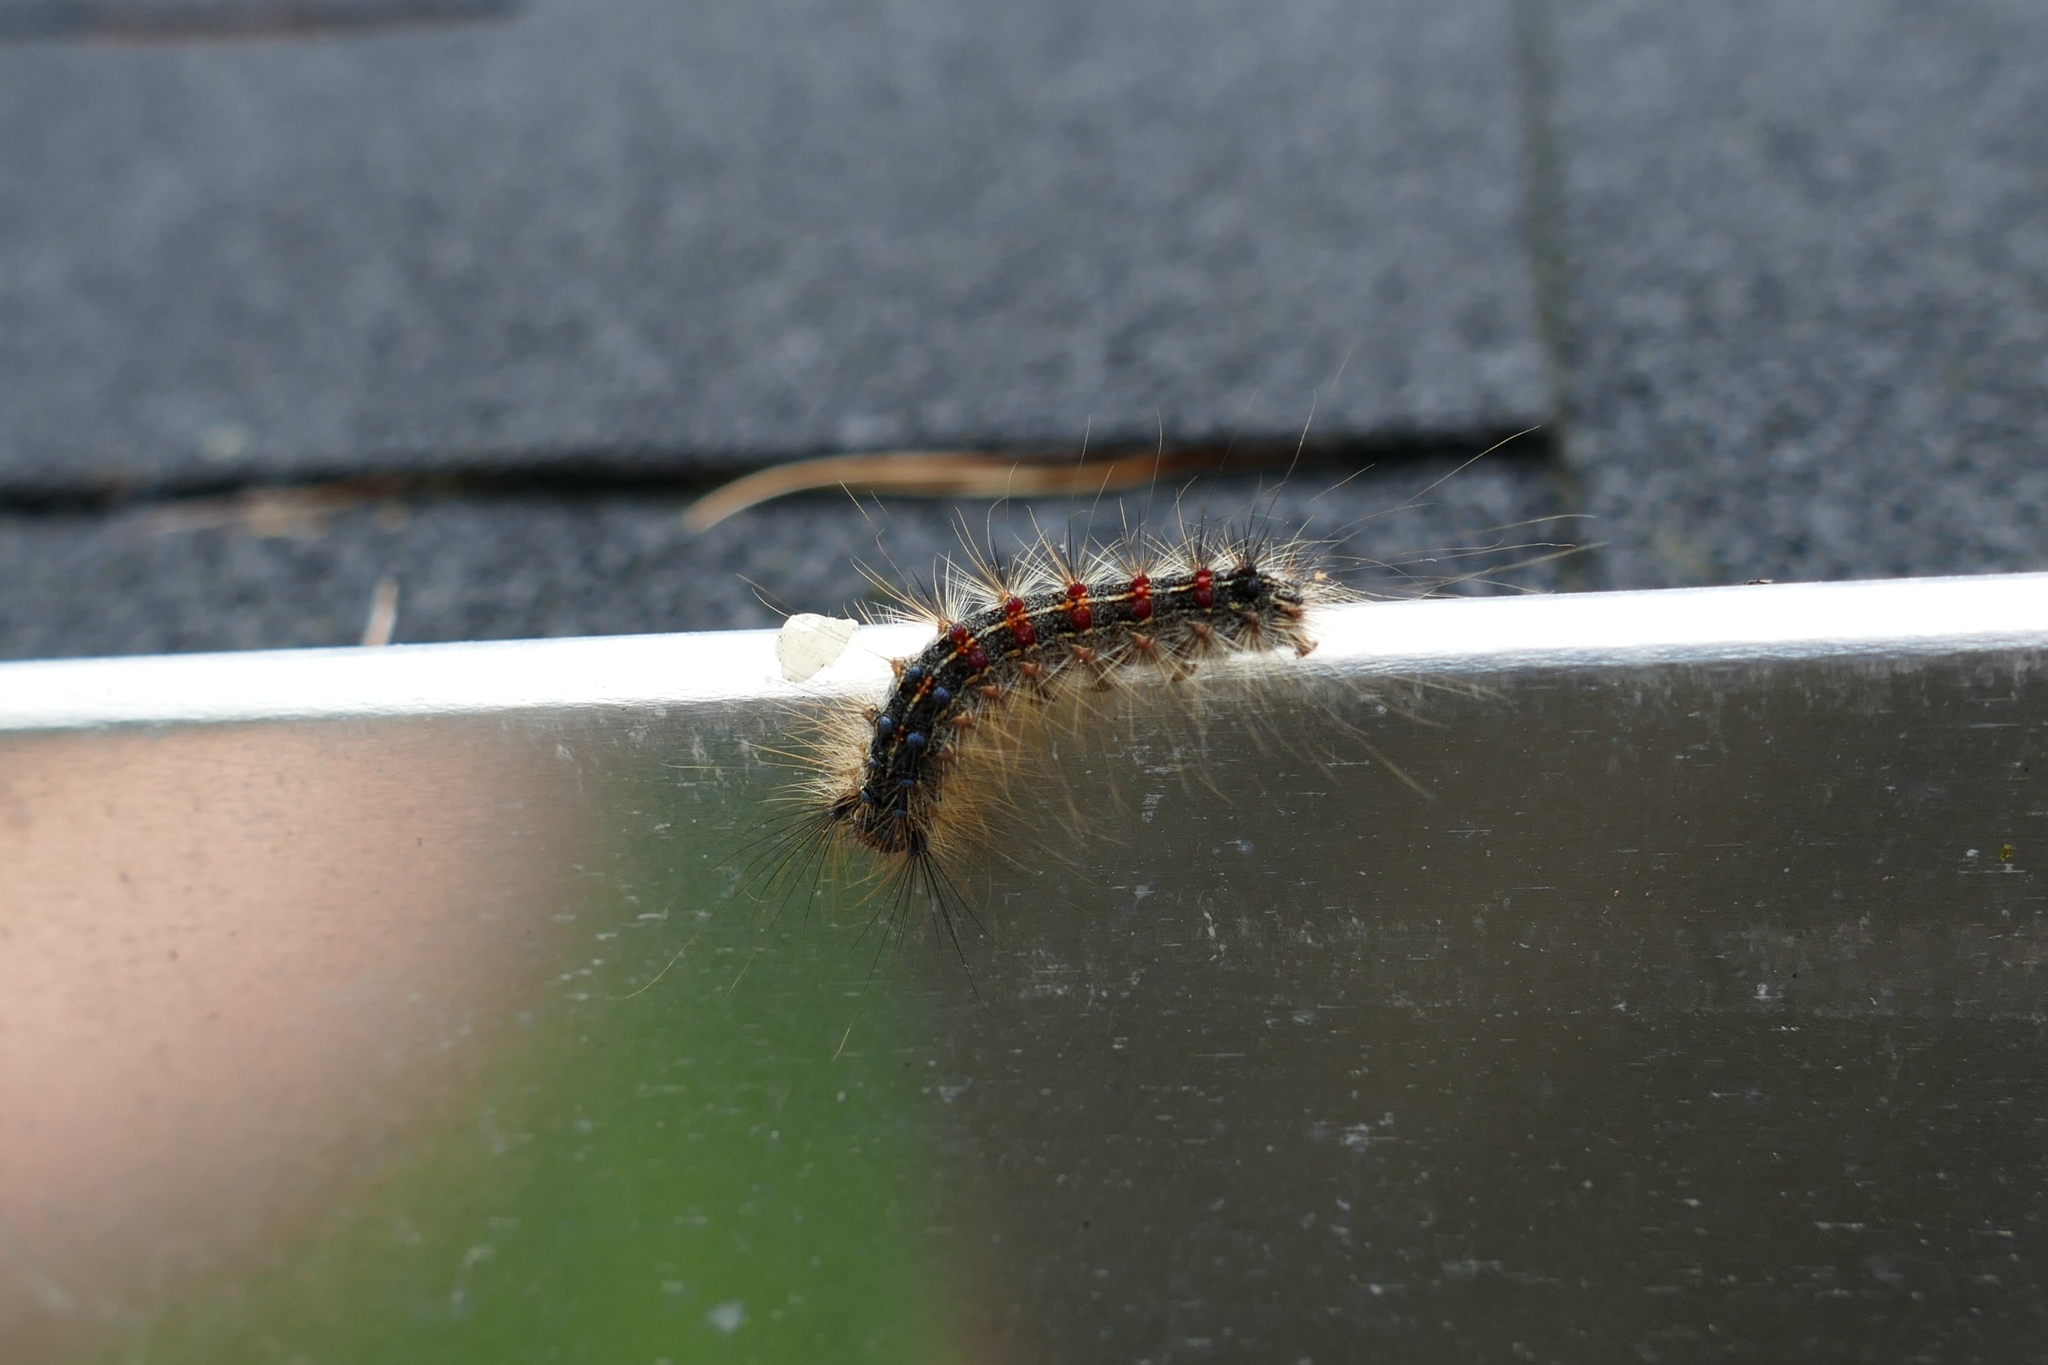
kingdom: Animalia
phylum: Arthropoda
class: Insecta
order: Lepidoptera
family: Erebidae
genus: Lymantria
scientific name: Lymantria dispar
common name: Gypsy moth
